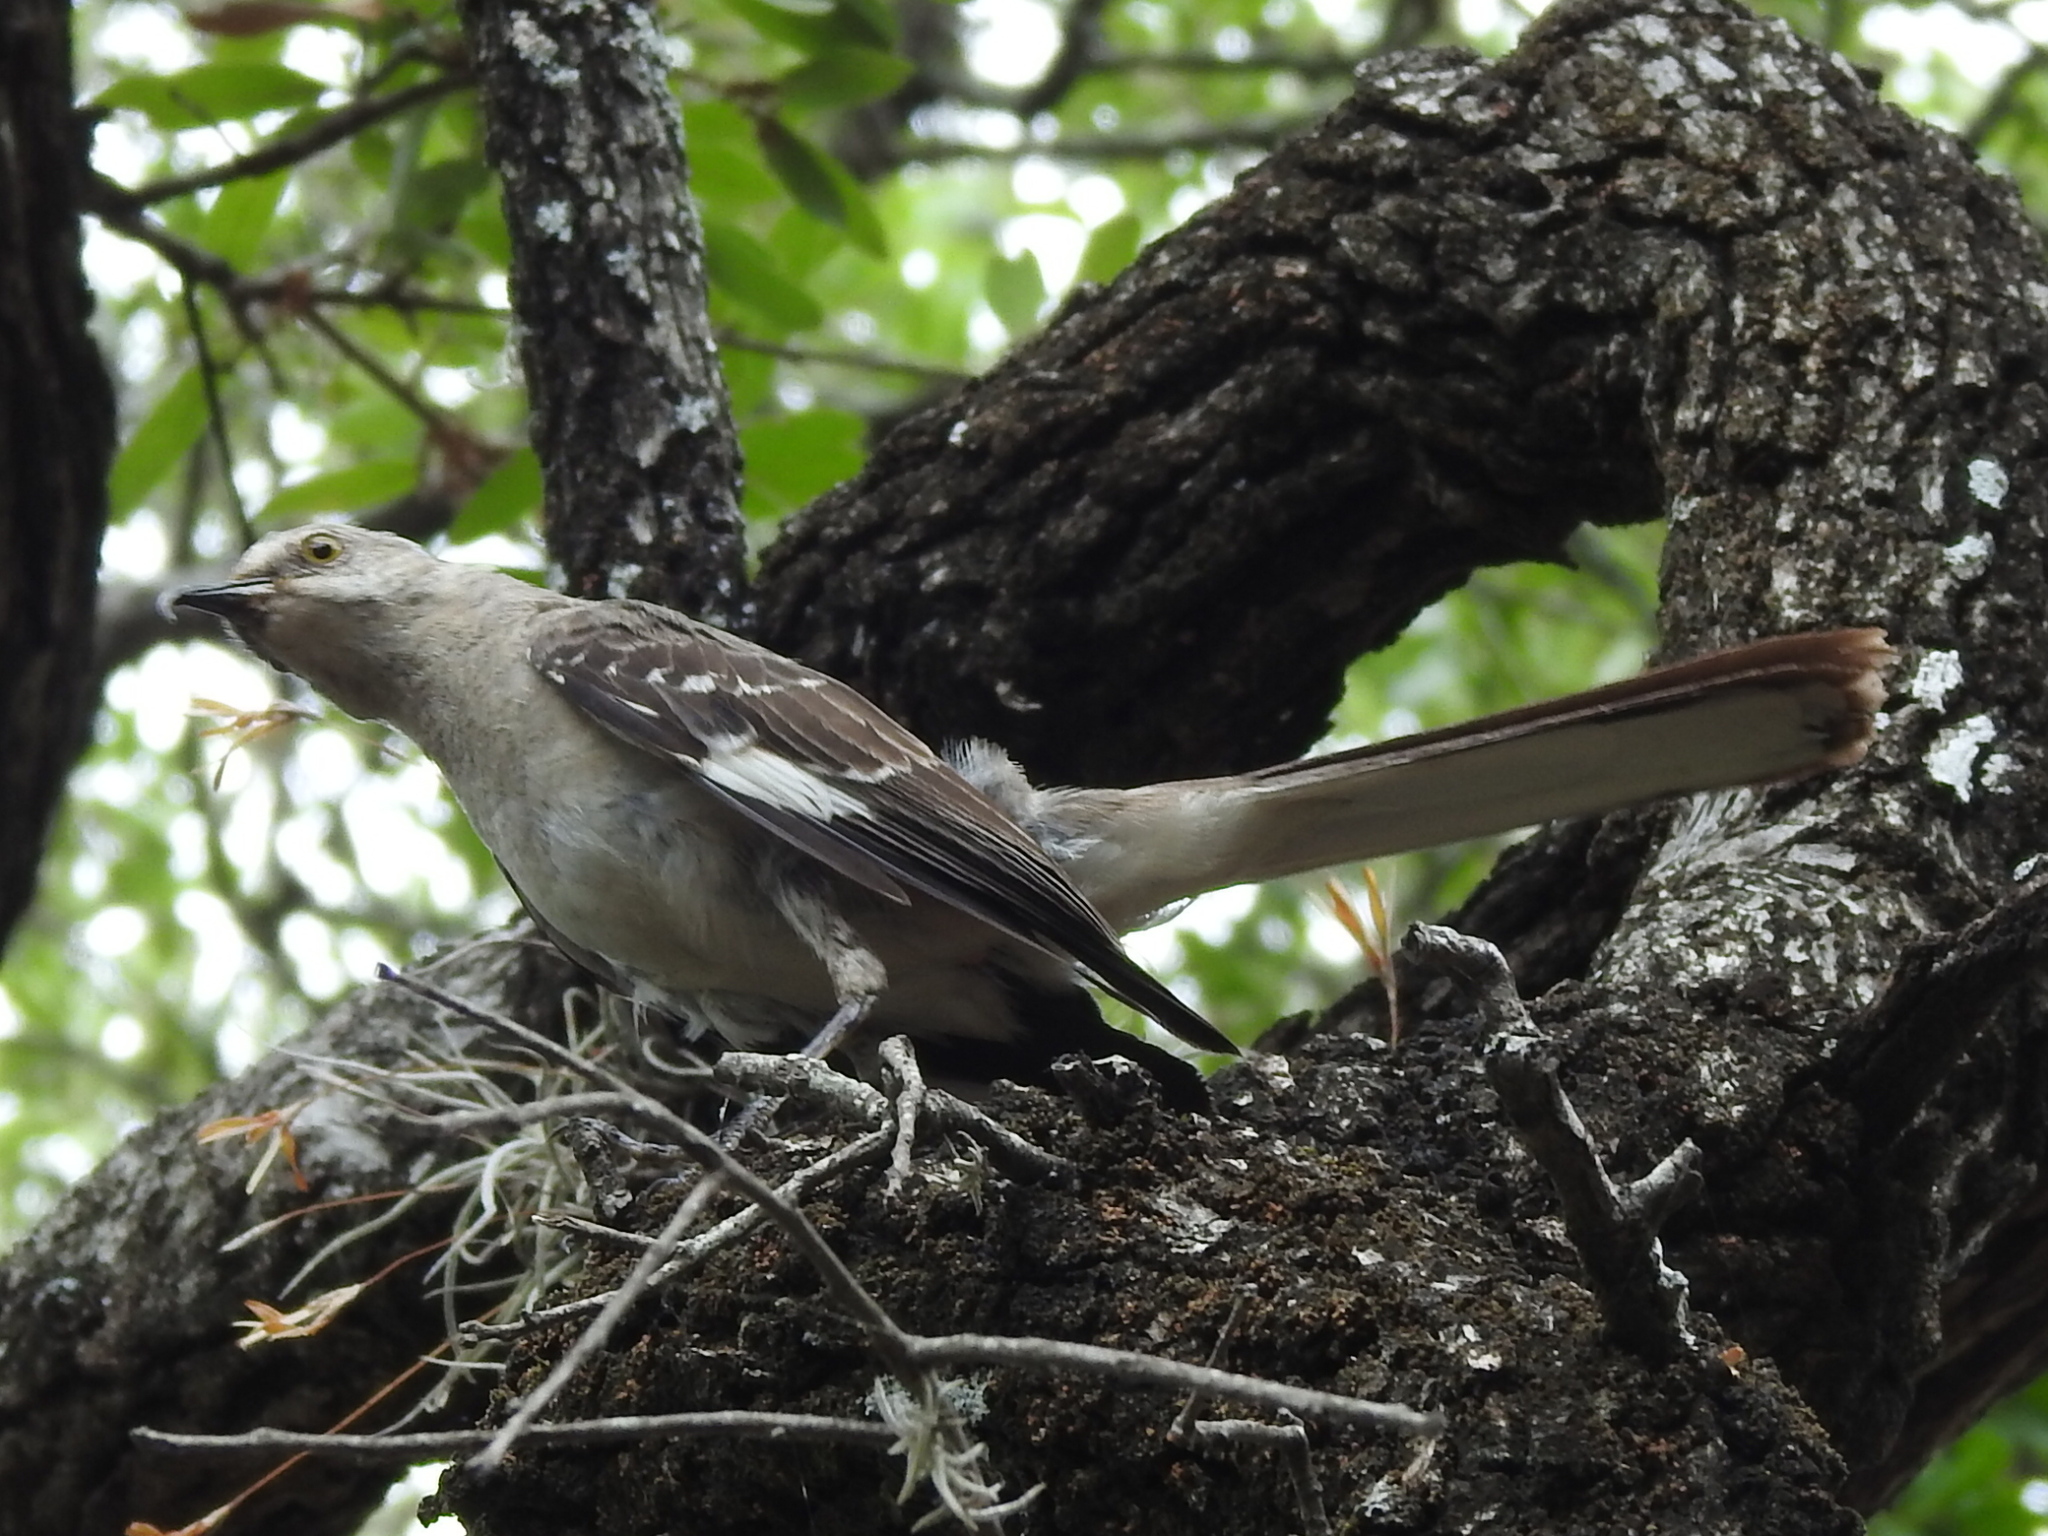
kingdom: Animalia
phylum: Chordata
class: Aves
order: Passeriformes
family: Mimidae
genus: Mimus
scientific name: Mimus polyglottos
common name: Northern mockingbird
